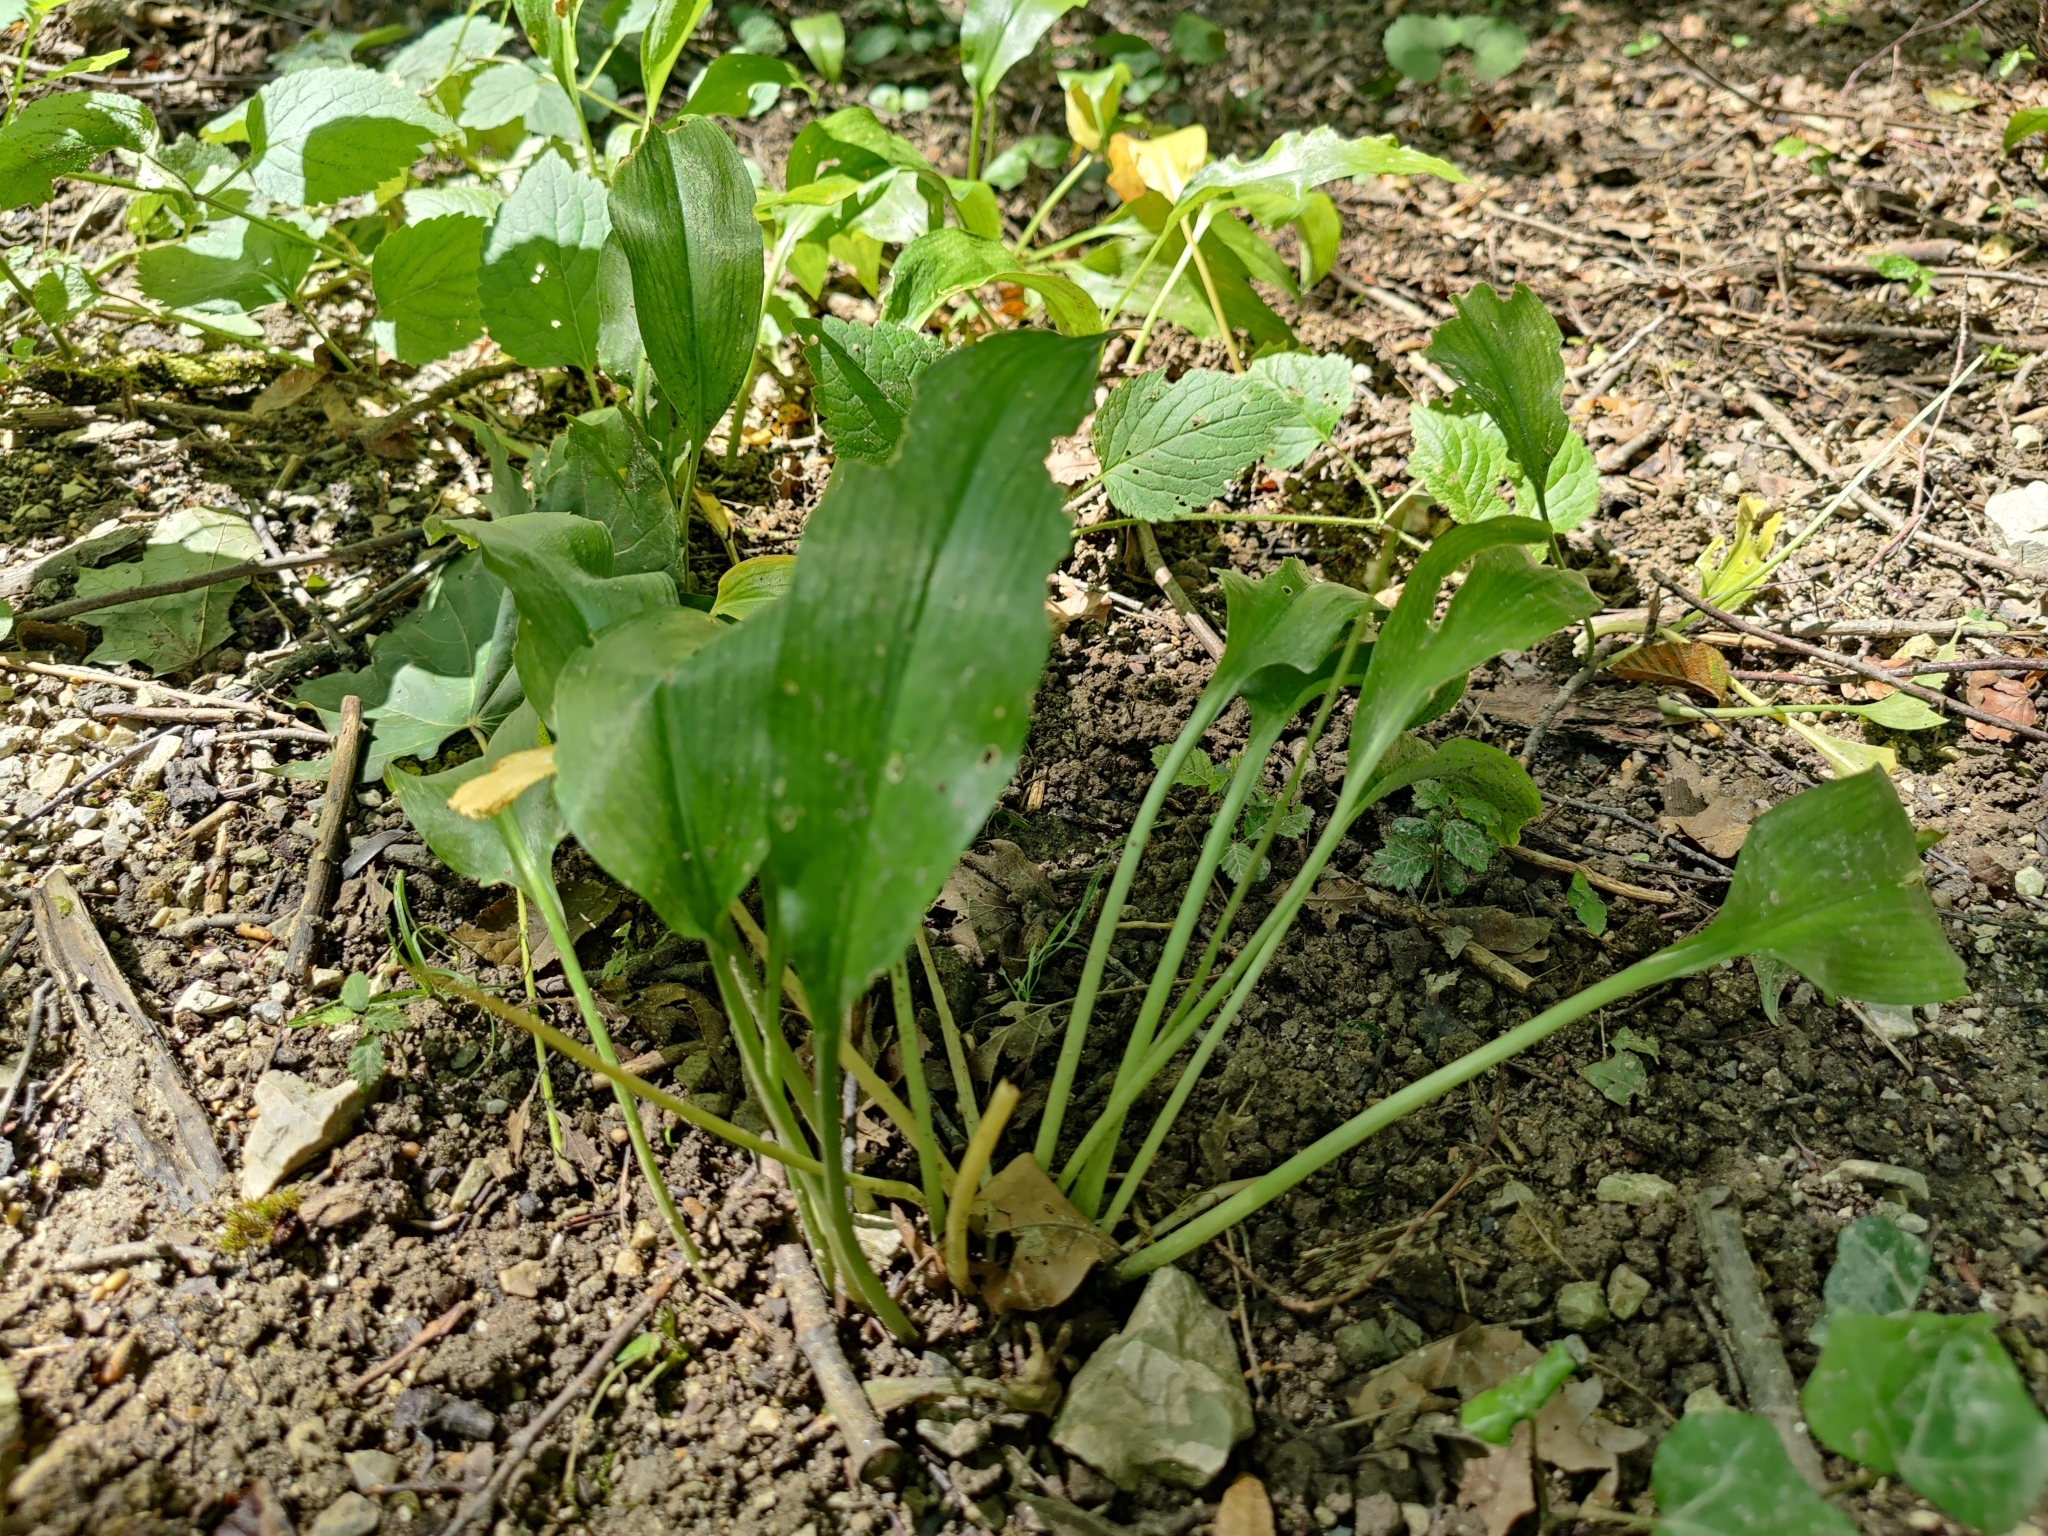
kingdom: Plantae
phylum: Tracheophyta
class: Liliopsida
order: Asparagales
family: Amaryllidaceae
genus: Allium
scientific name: Allium ursinum
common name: Ramsons
